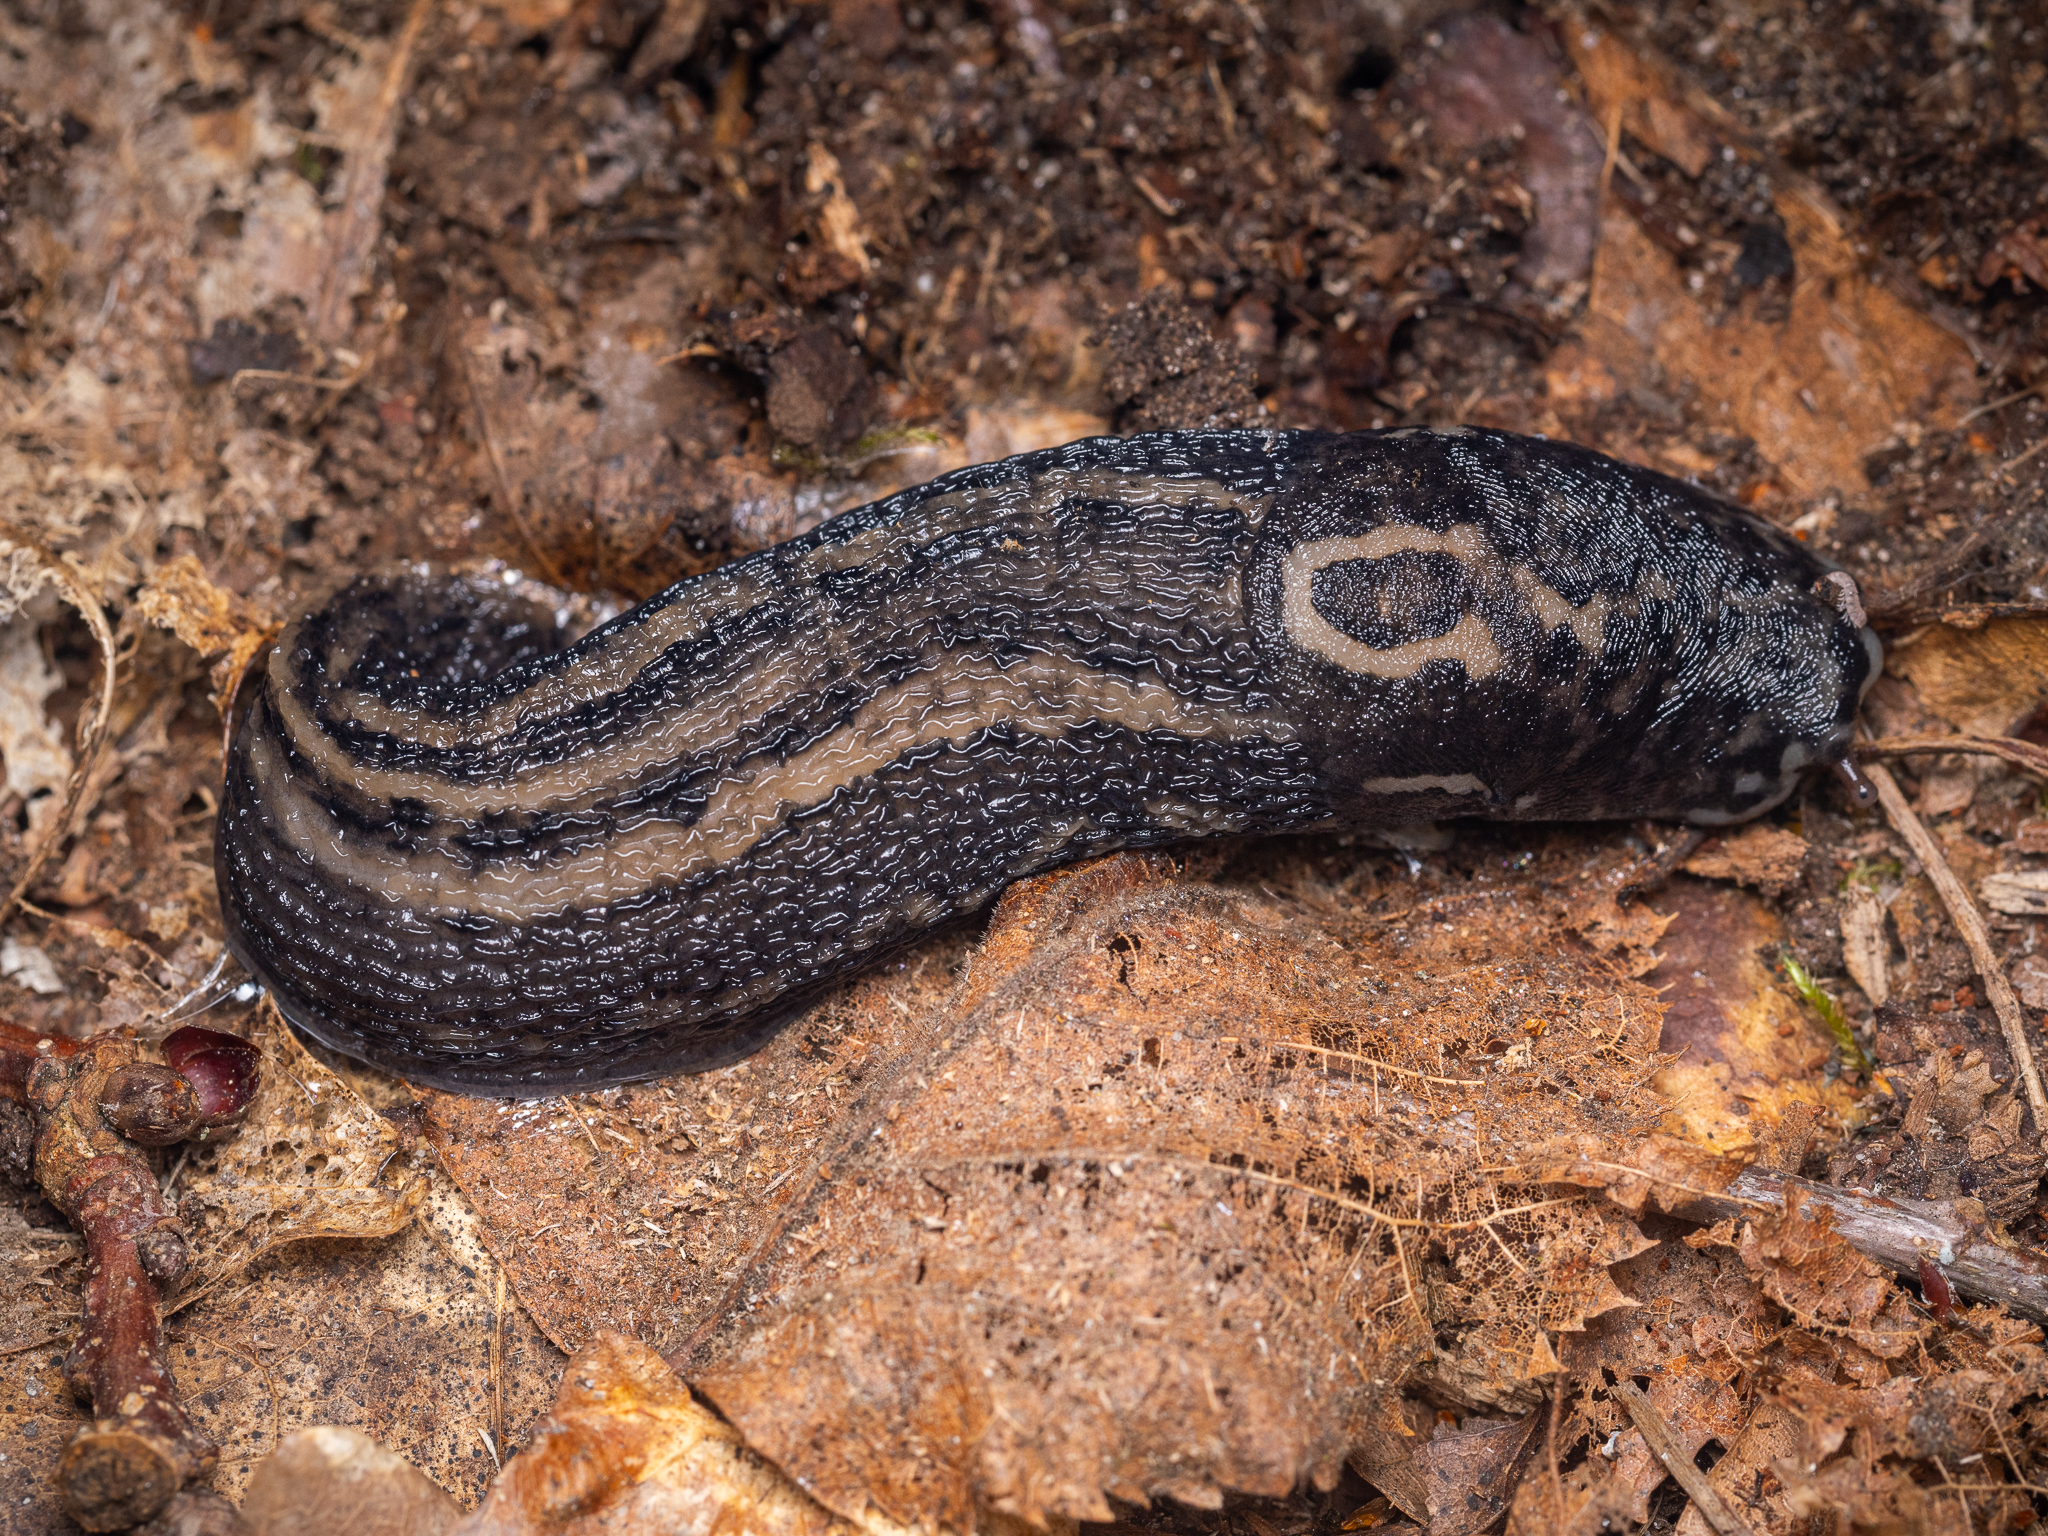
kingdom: Animalia
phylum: Mollusca
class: Gastropoda
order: Stylommatophora
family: Limacidae
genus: Limax
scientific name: Limax maximus
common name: Great grey slug
